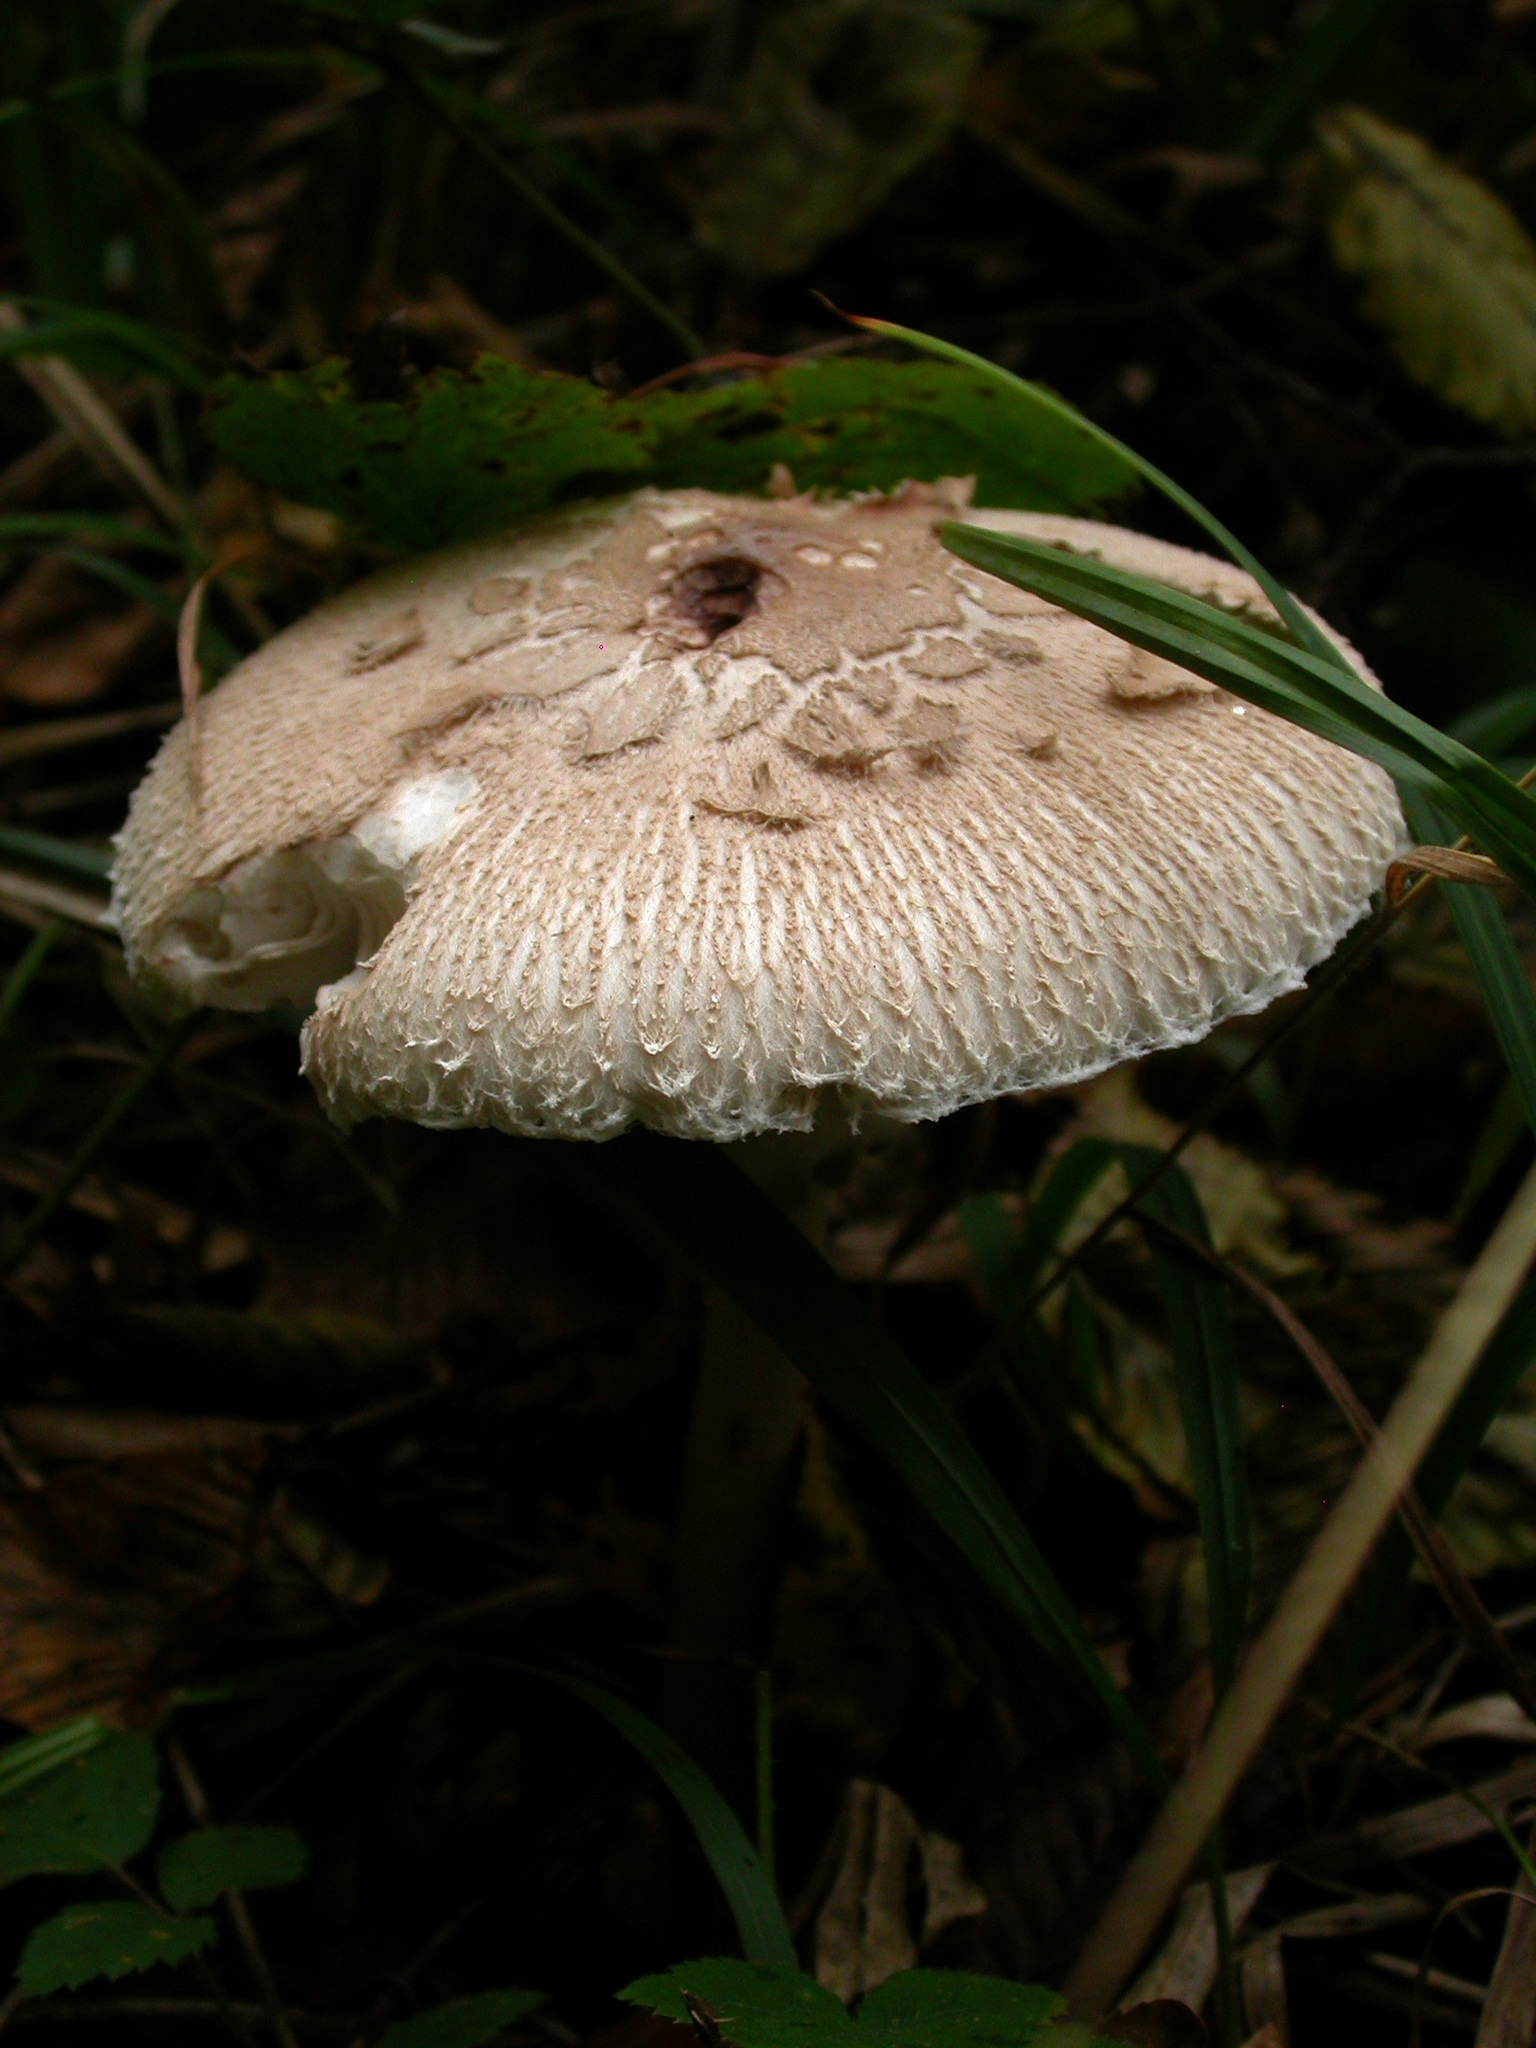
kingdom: Fungi
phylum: Basidiomycota
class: Agaricomycetes
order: Agaricales
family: Agaricaceae
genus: Macrolepiota
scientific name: Macrolepiota procera
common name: Parasol
